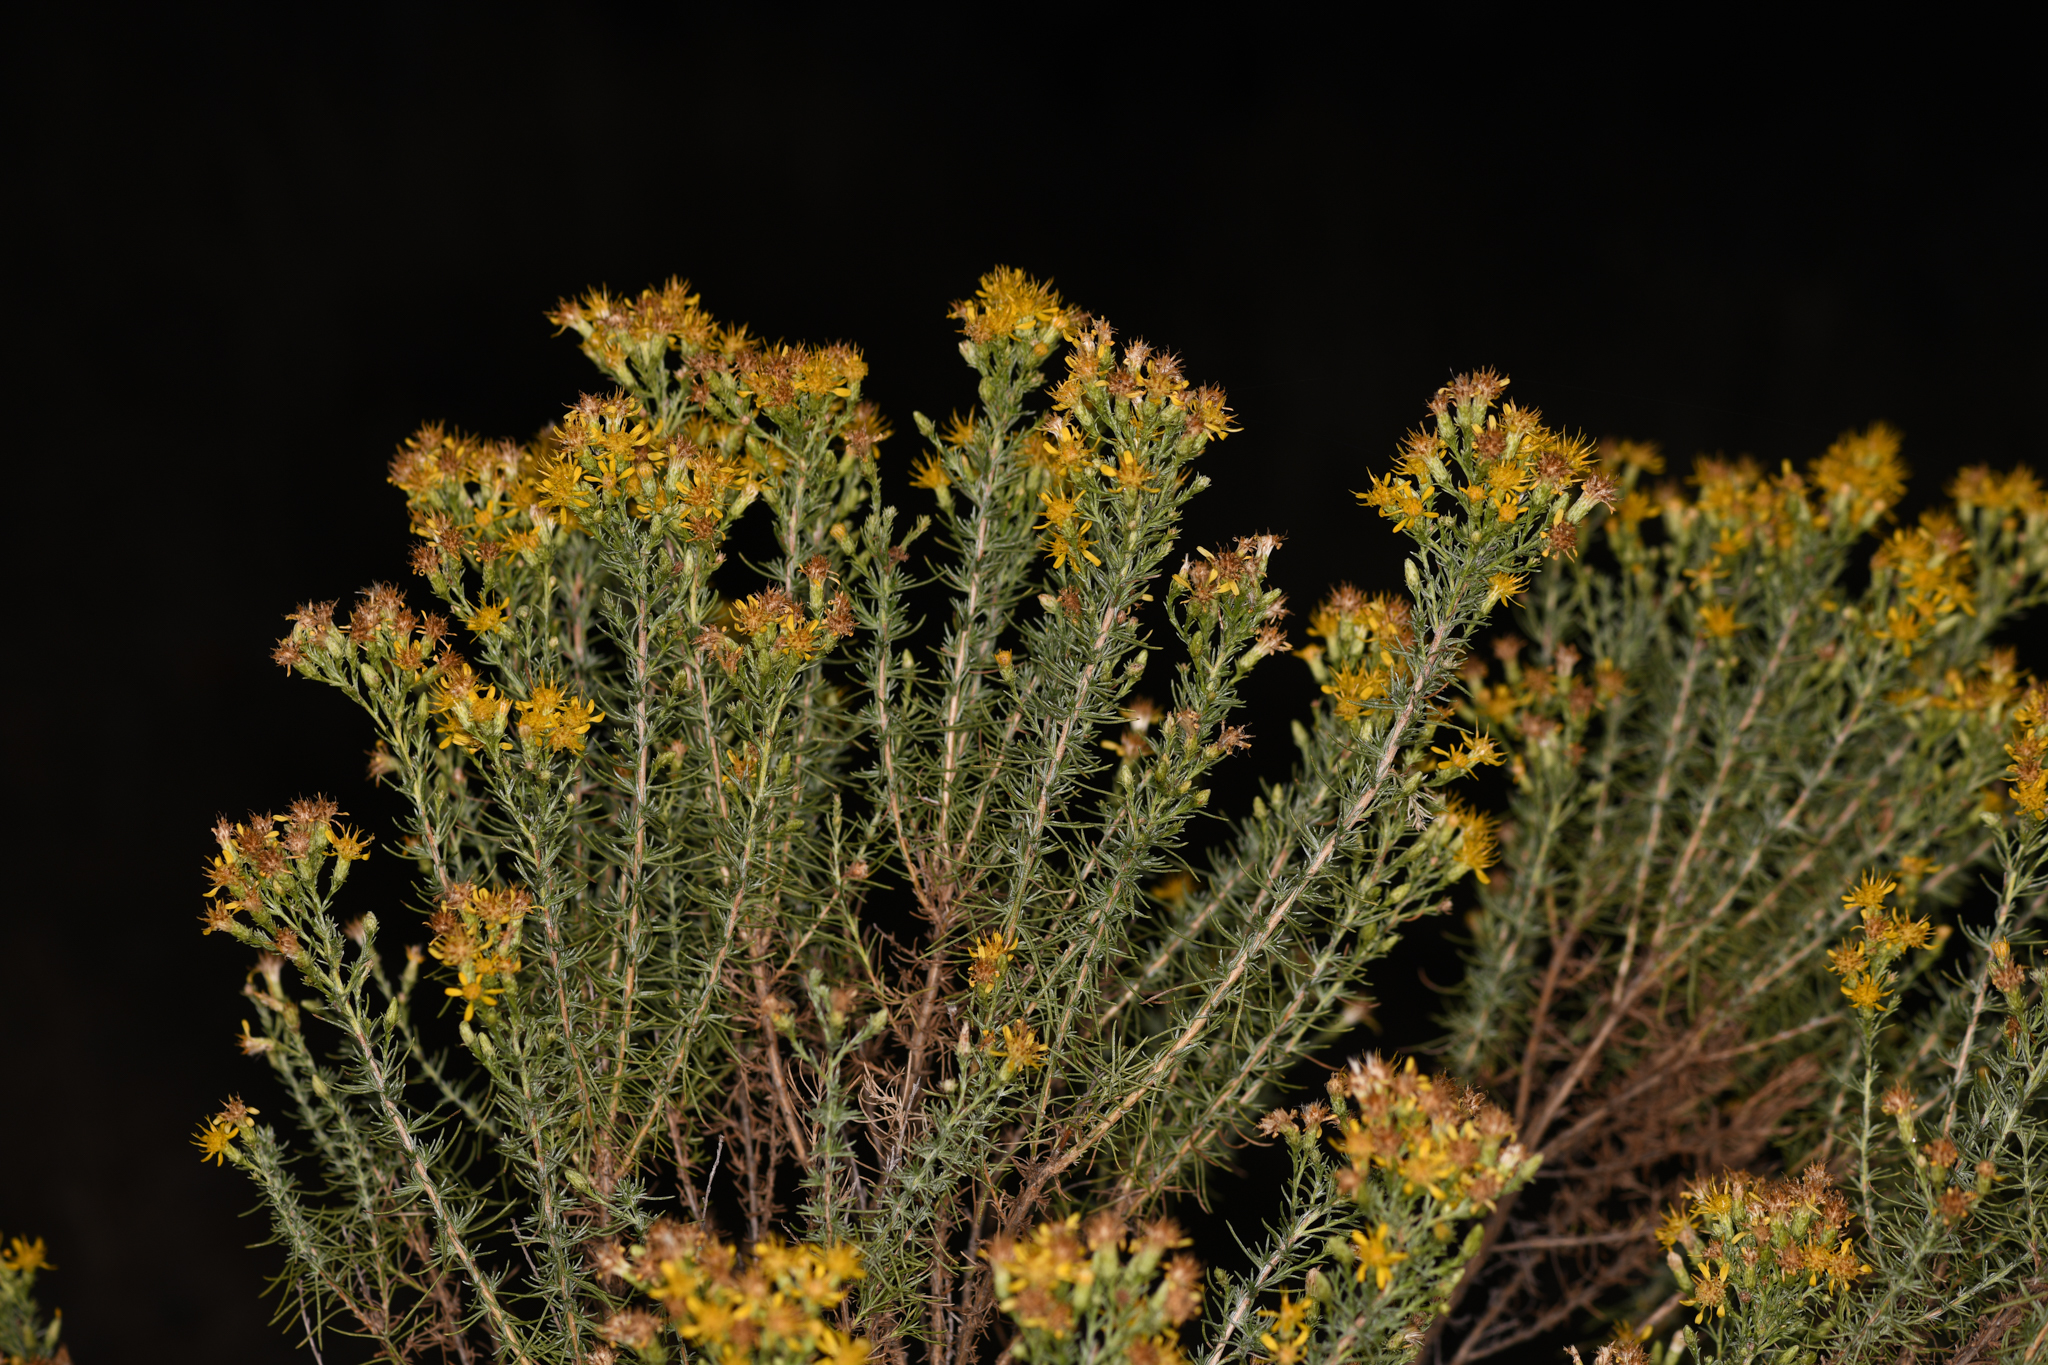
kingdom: Plantae
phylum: Tracheophyta
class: Magnoliopsida
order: Asterales
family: Asteraceae
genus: Ericameria
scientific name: Ericameria pinifolia
